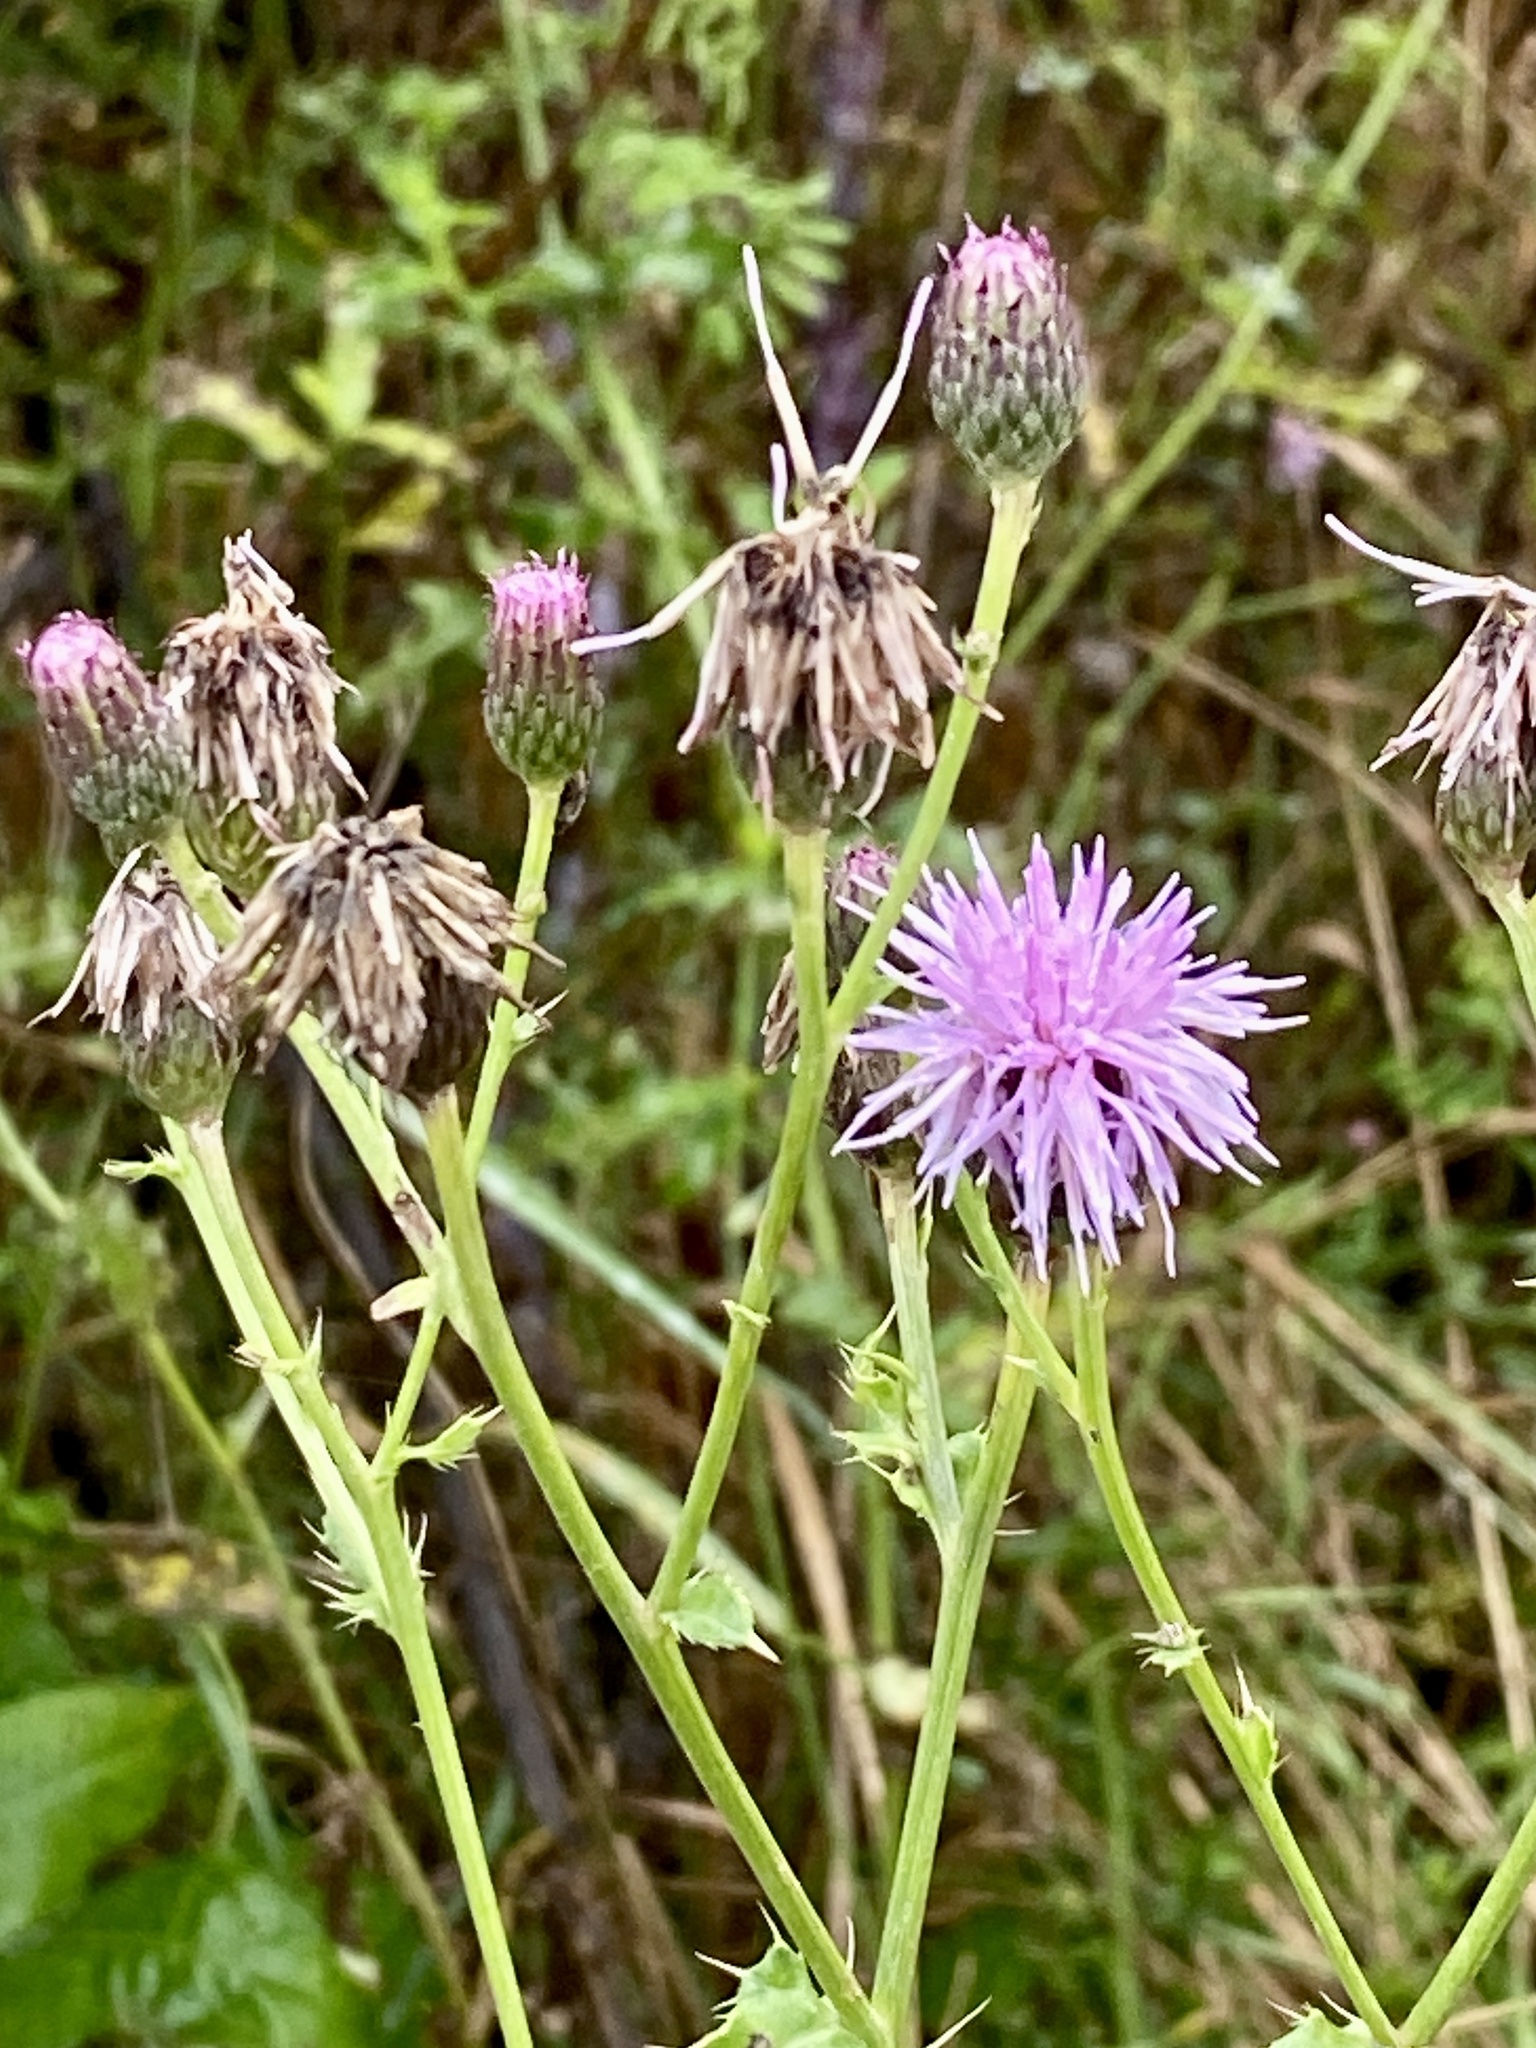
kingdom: Plantae
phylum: Tracheophyta
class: Magnoliopsida
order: Asterales
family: Asteraceae
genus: Cirsium
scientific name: Cirsium arvense
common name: Creeping thistle
